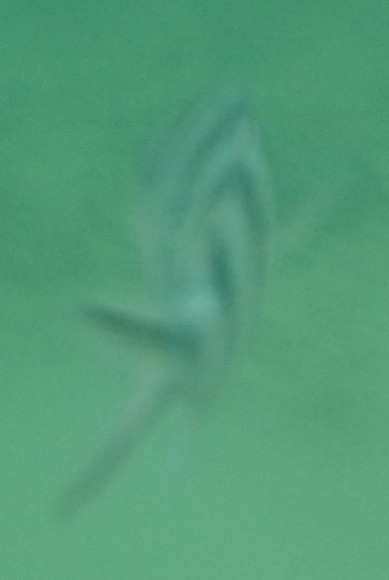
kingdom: Animalia
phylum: Chordata
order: Perciformes
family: Pomacentridae
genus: Abudefduf
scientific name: Abudefduf sexfasciatus
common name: Scissortail sergeant
